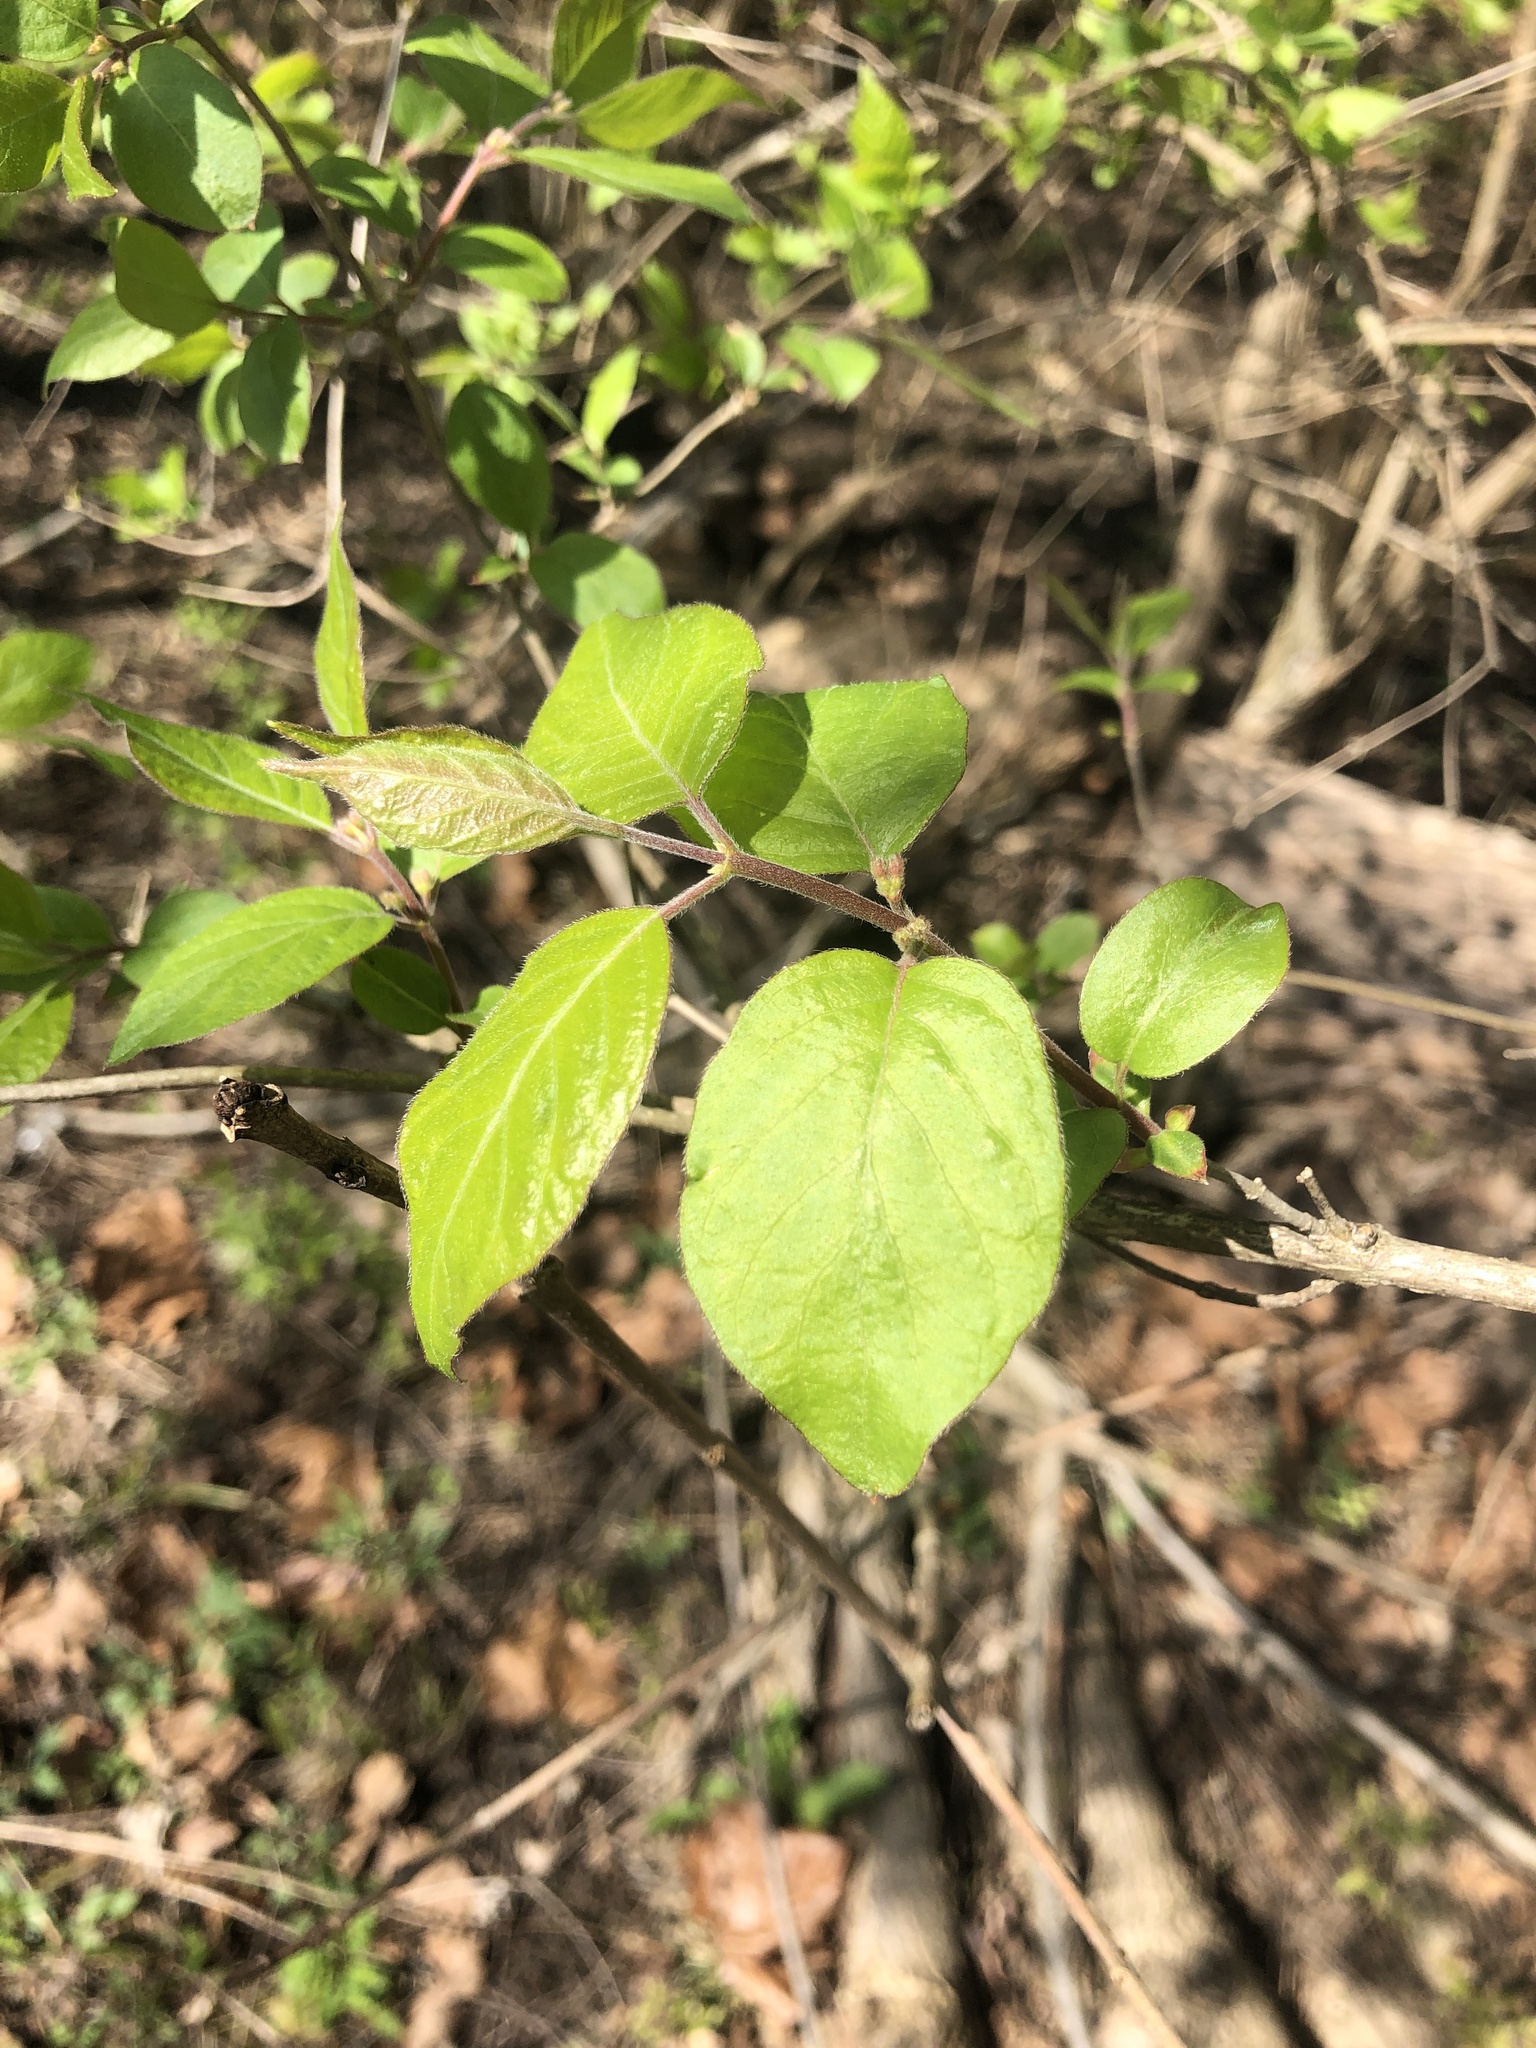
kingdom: Plantae
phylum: Tracheophyta
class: Magnoliopsida
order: Dipsacales
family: Caprifoliaceae
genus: Lonicera
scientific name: Lonicera maackii
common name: Amur honeysuckle
